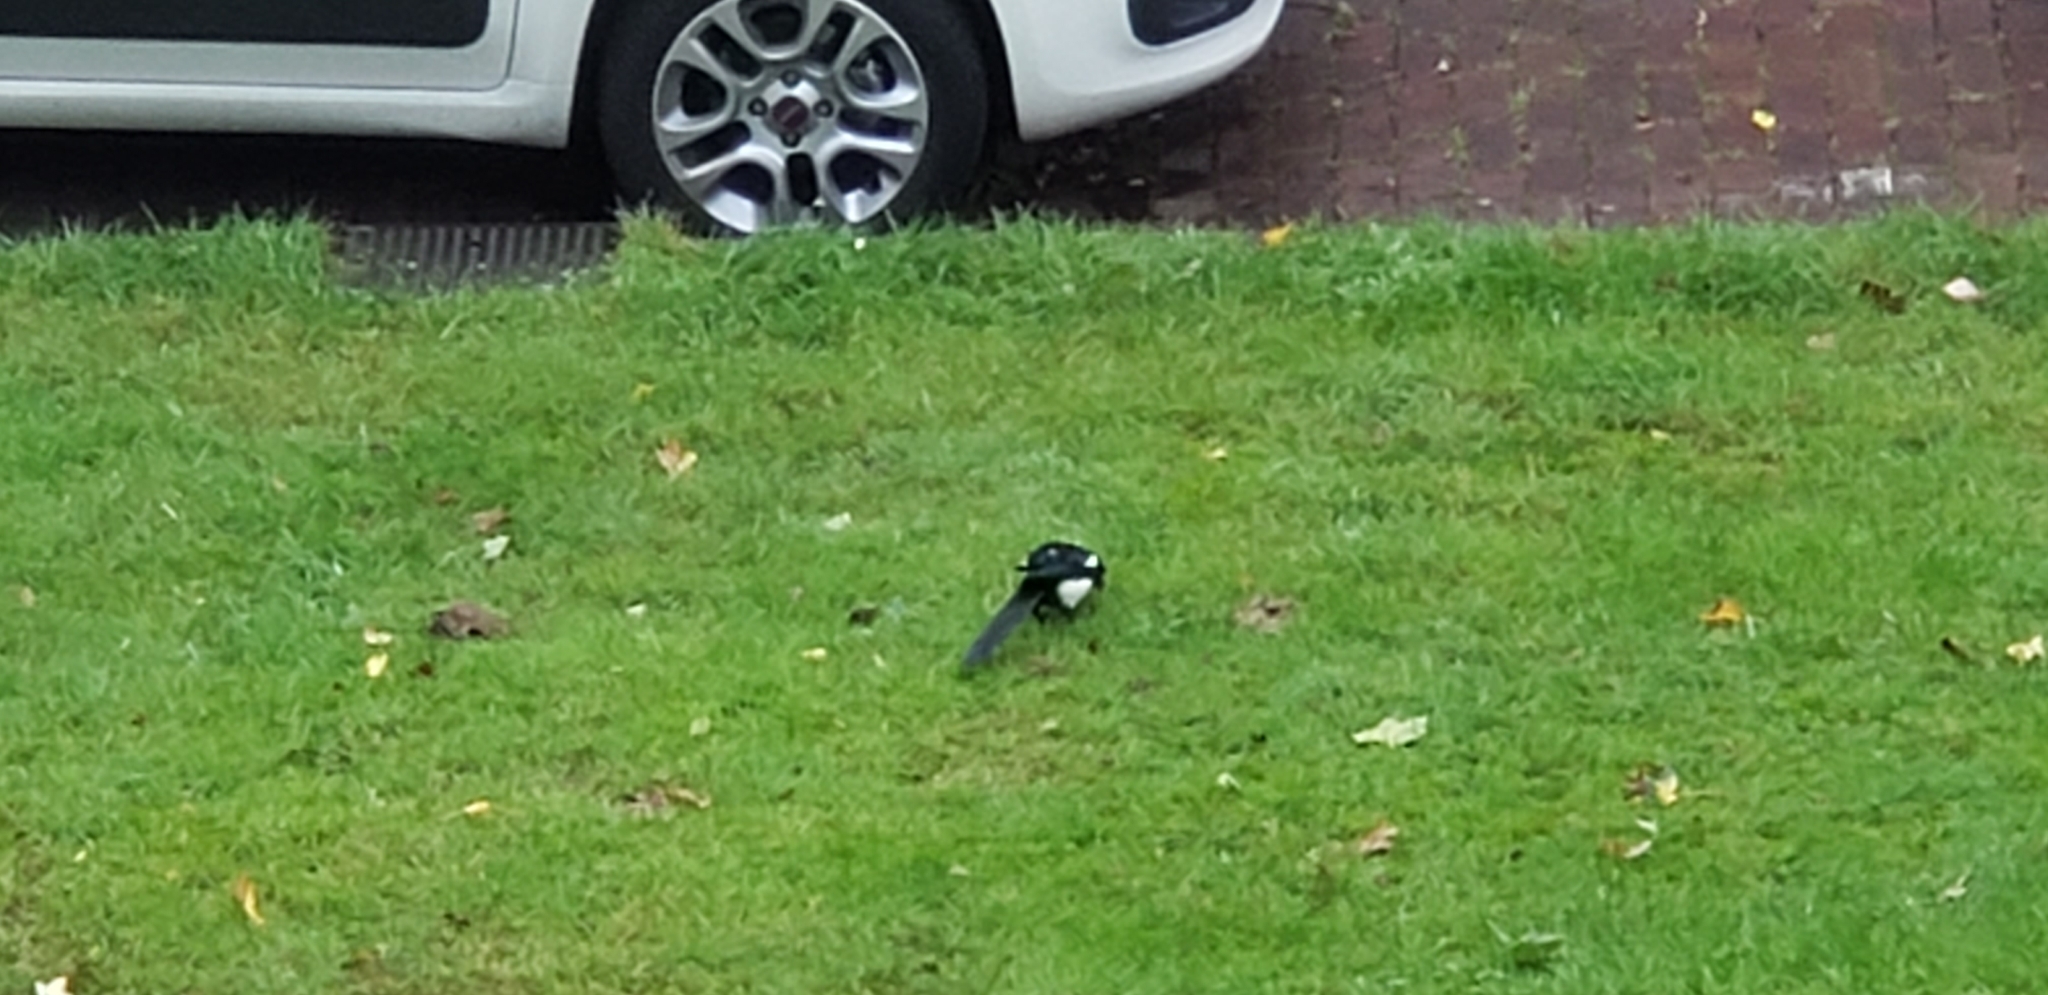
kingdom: Animalia
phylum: Chordata
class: Aves
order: Passeriformes
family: Corvidae
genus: Pica
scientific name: Pica pica
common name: Eurasian magpie
